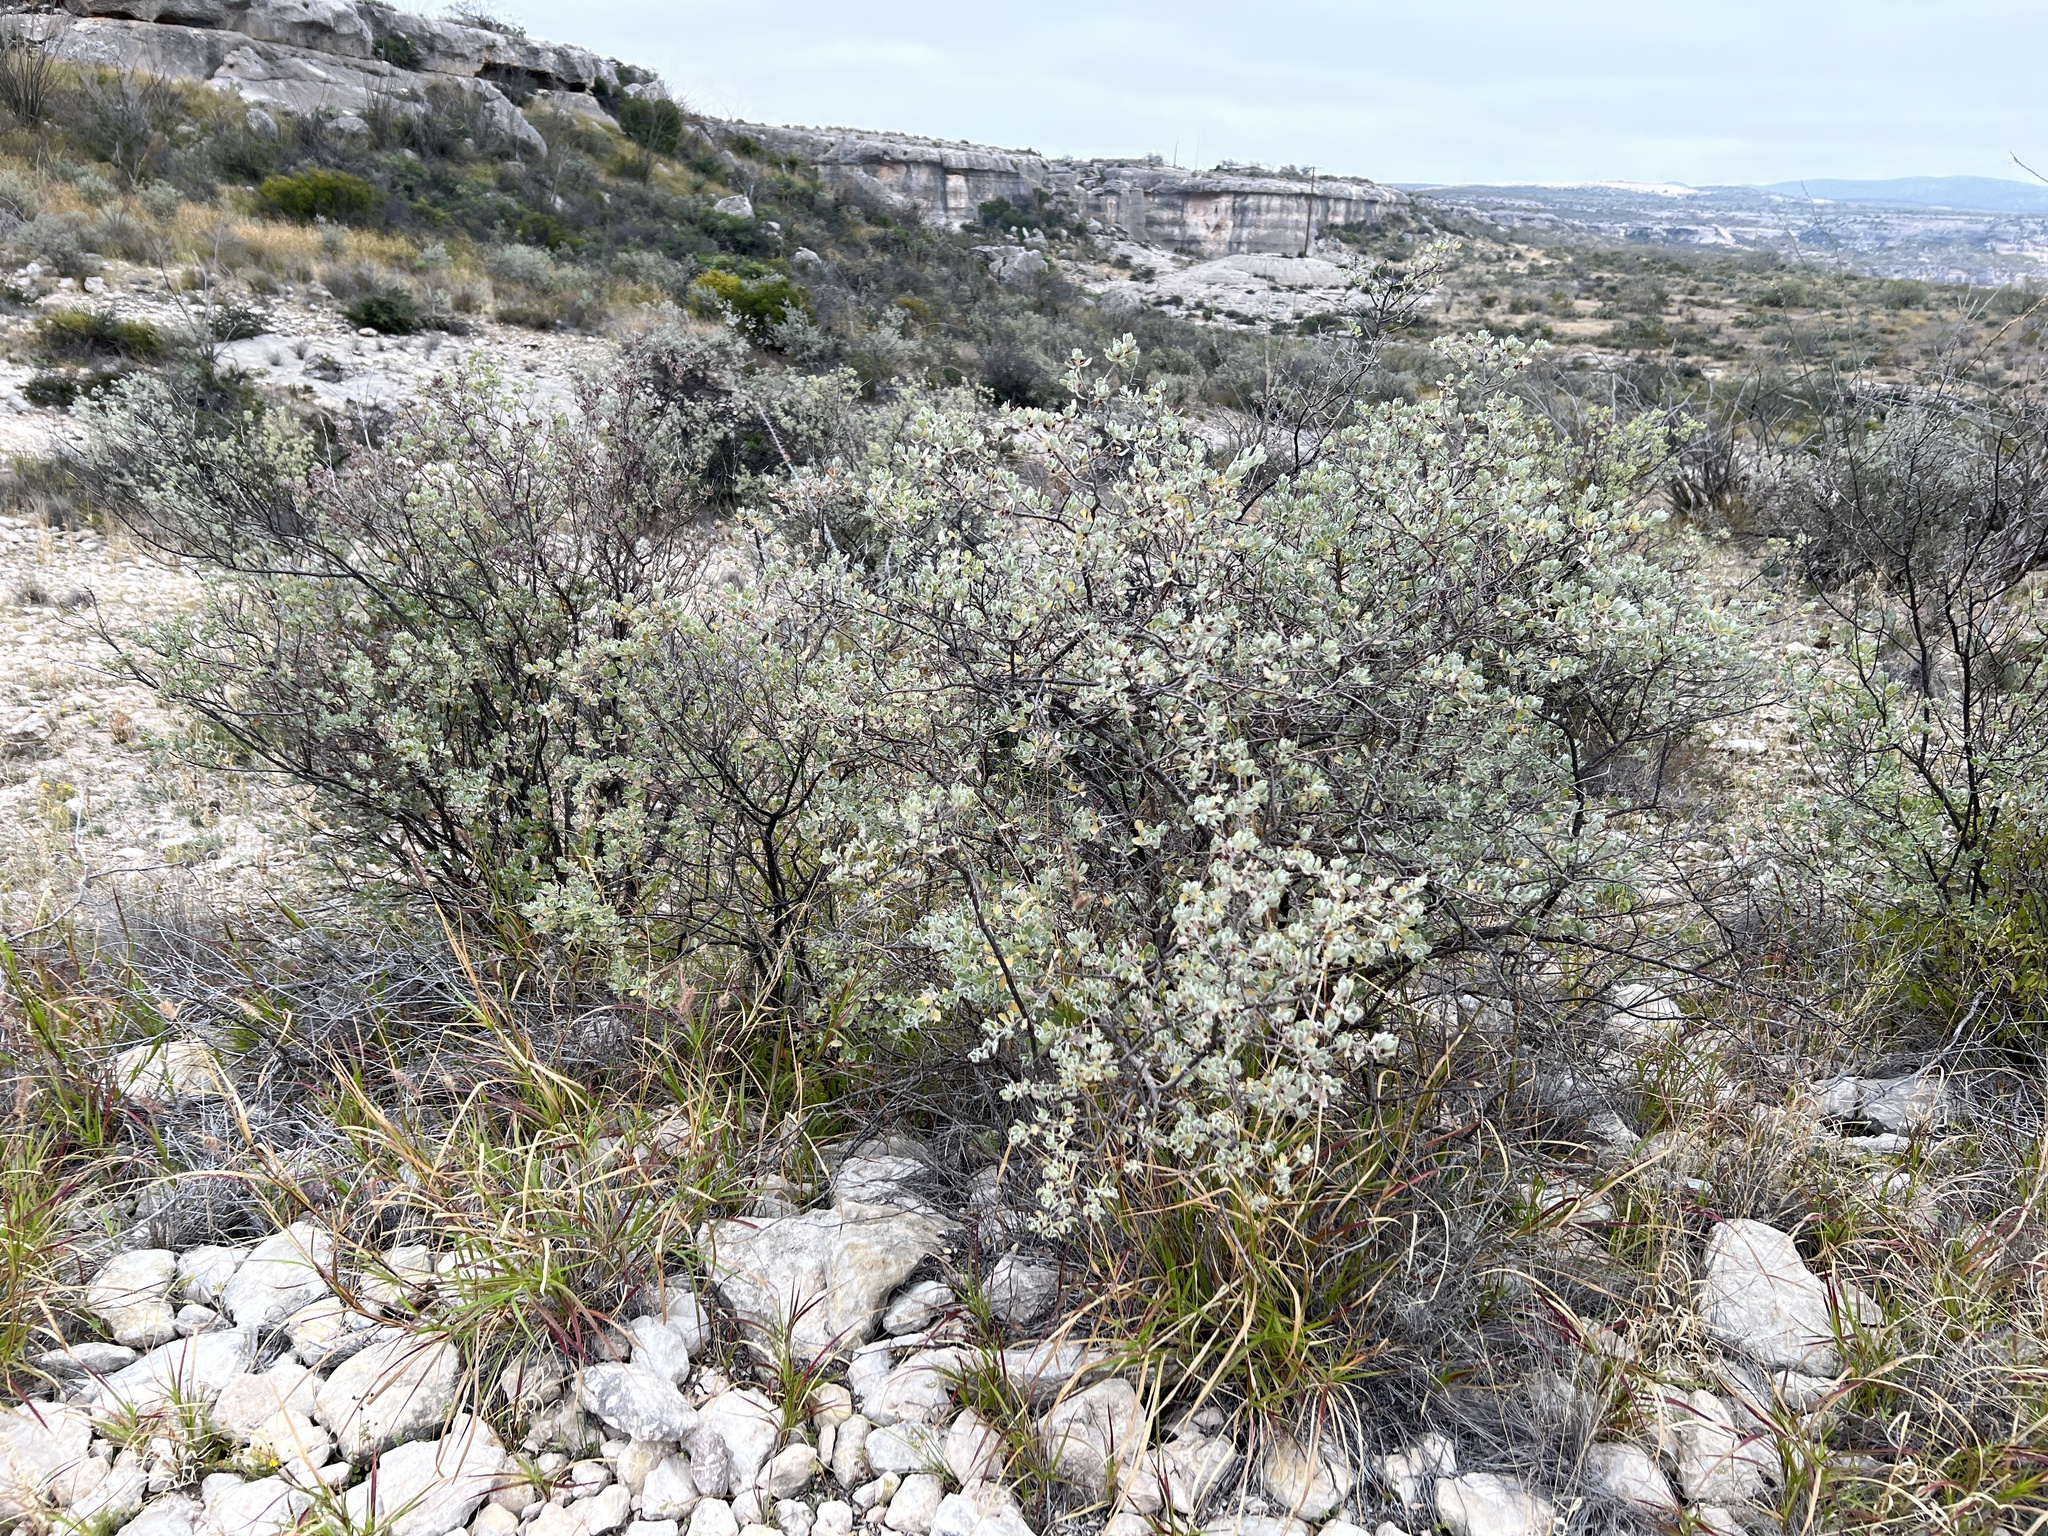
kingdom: Plantae
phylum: Tracheophyta
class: Magnoliopsida
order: Lamiales
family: Scrophulariaceae
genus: Leucophyllum
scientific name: Leucophyllum frutescens
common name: Texas silverleaf
